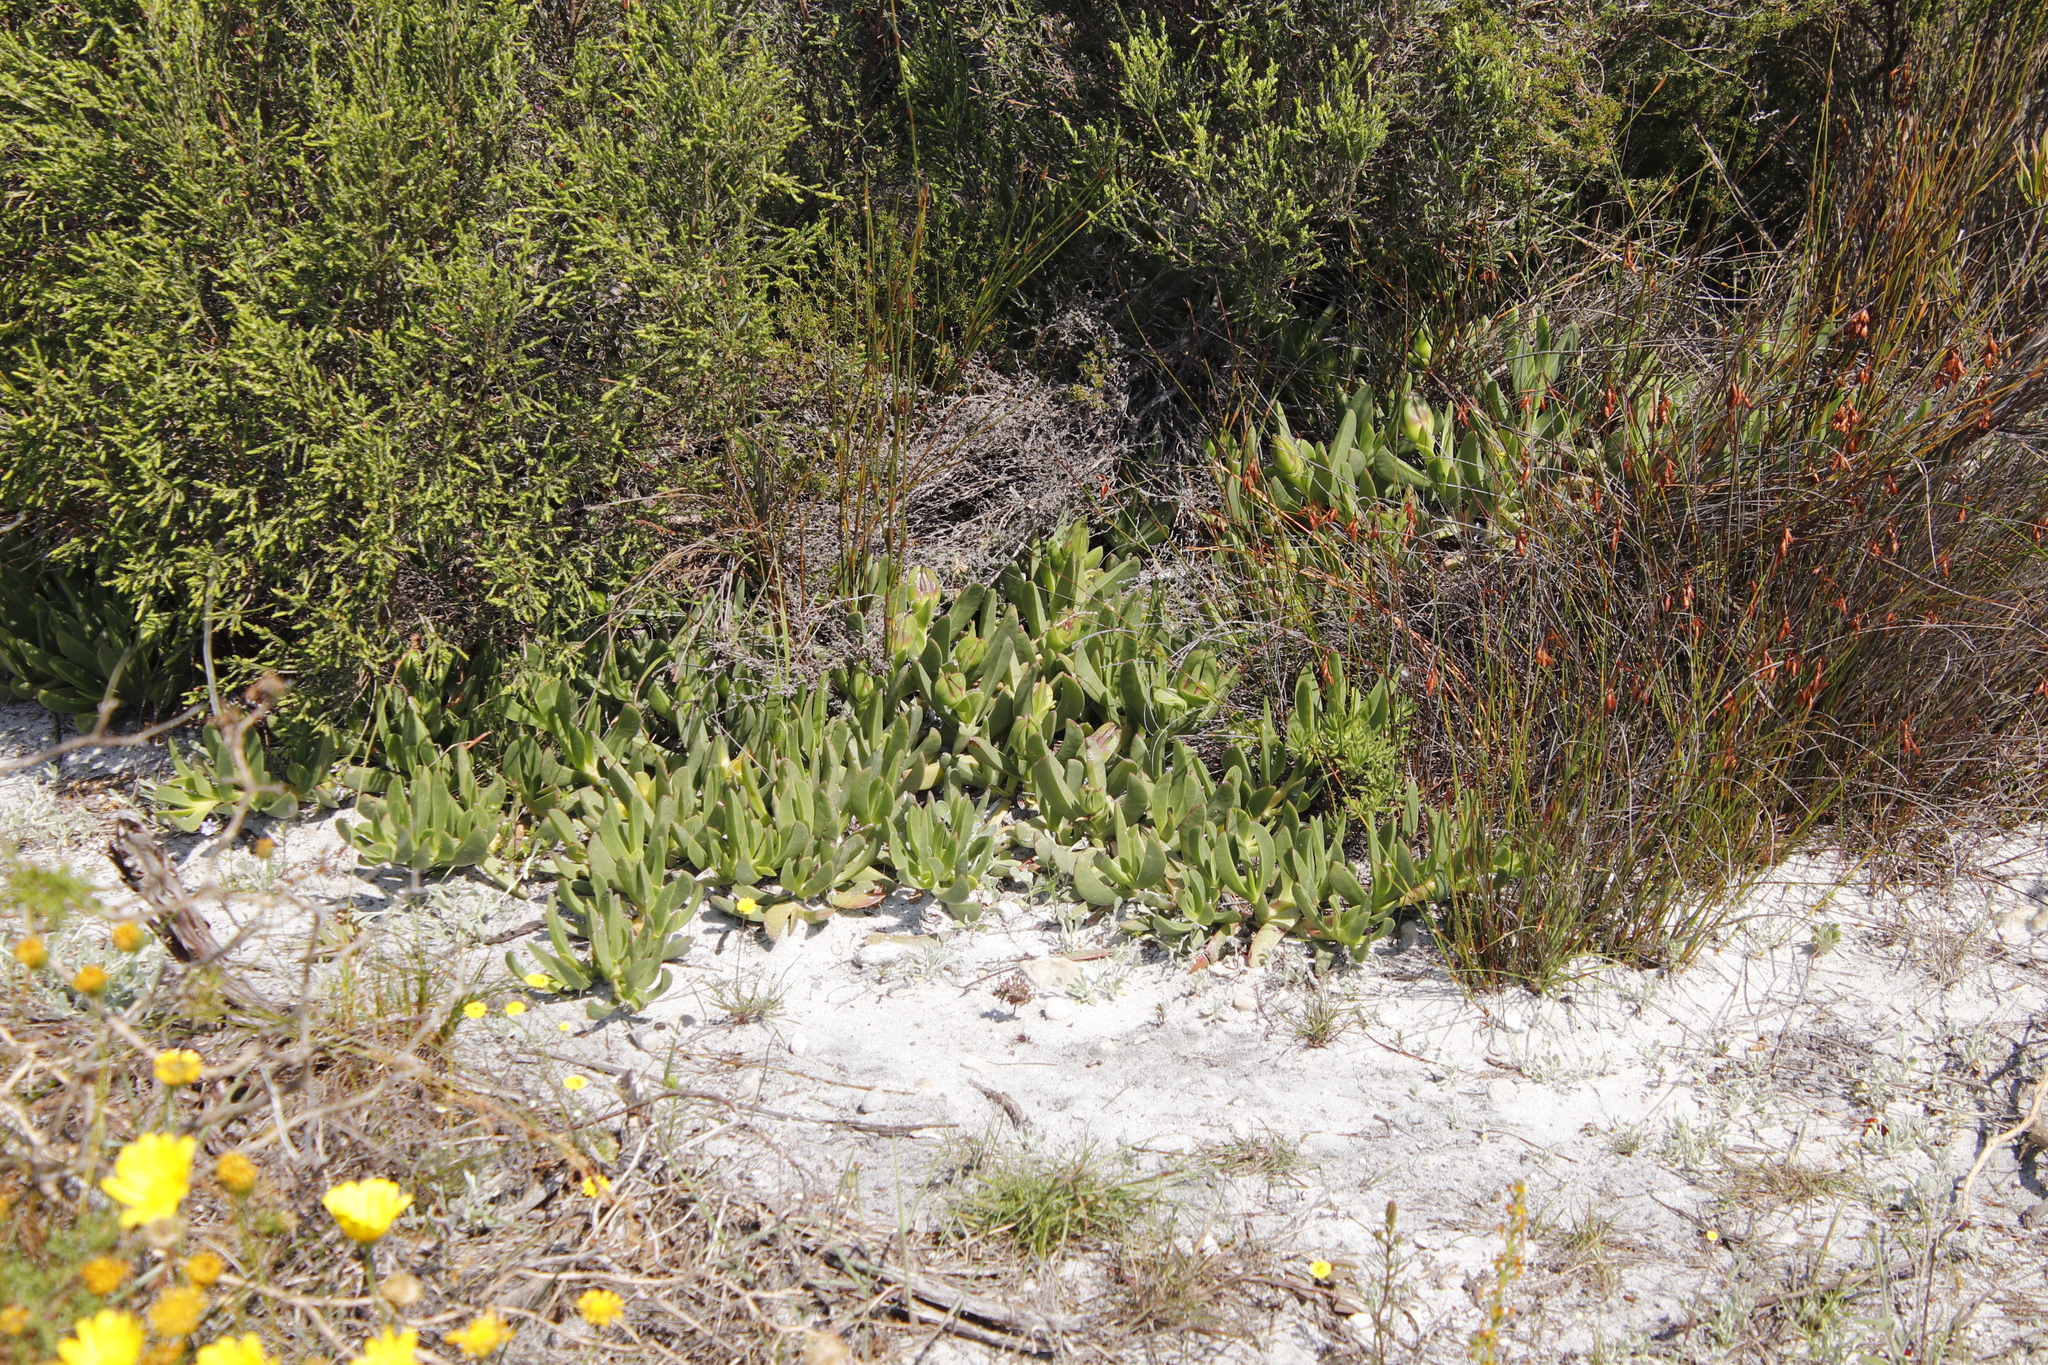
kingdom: Plantae
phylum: Tracheophyta
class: Magnoliopsida
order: Caryophyllales
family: Aizoaceae
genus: Carpobrotus
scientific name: Carpobrotus acinaciformis
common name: Sally-my-handsome
